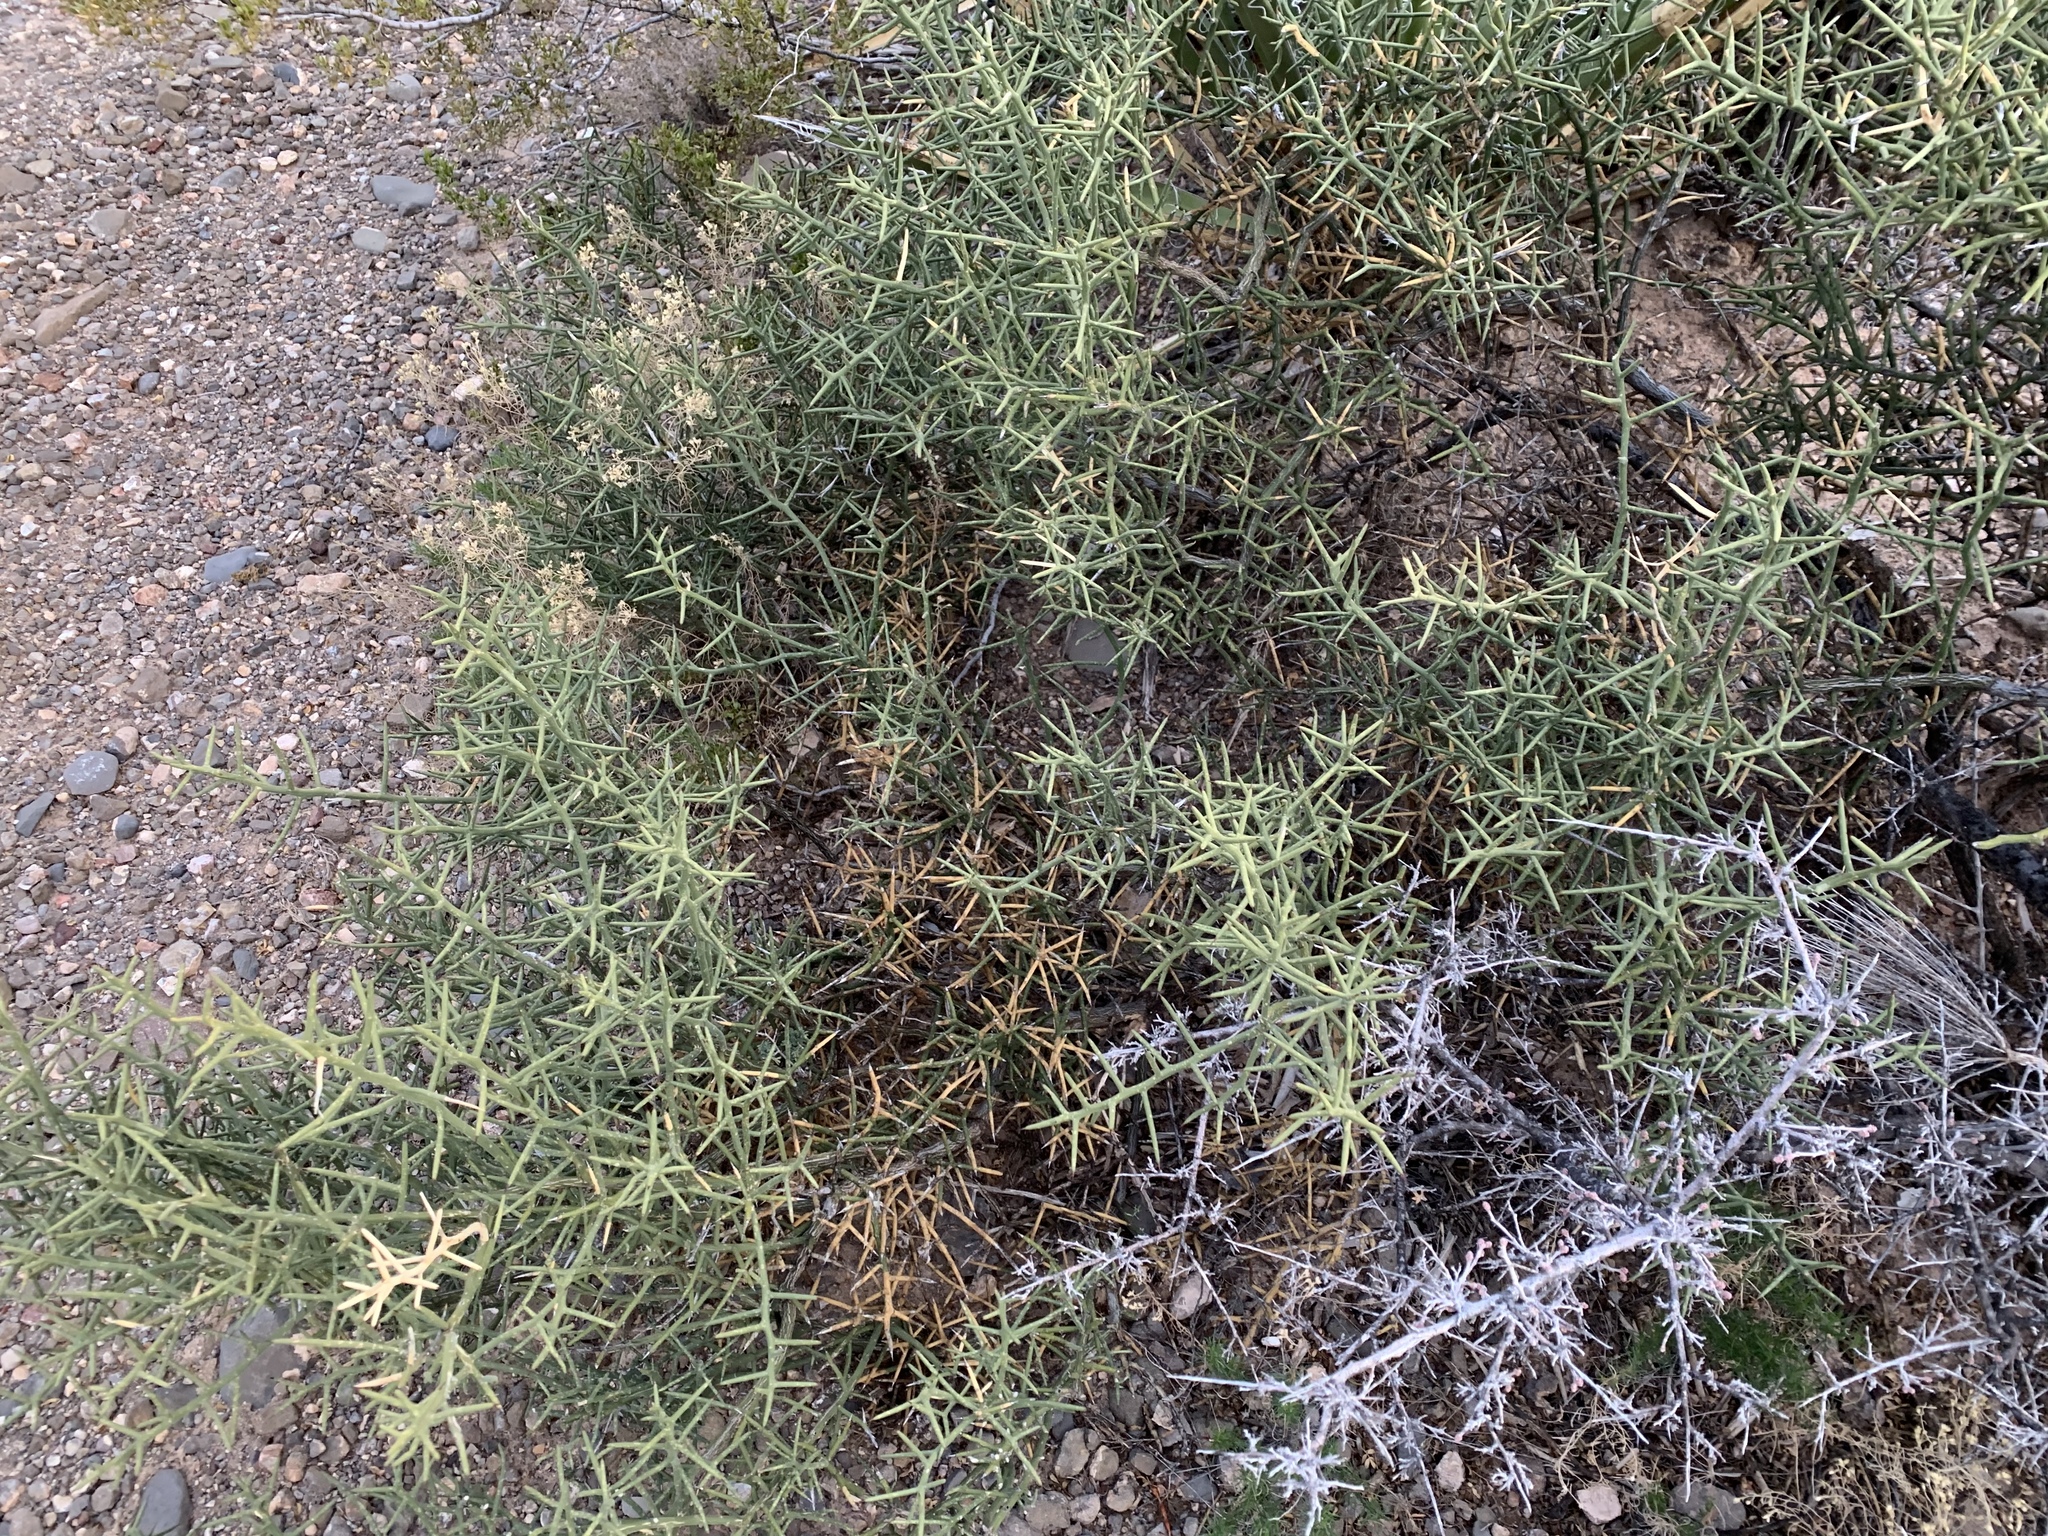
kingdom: Plantae
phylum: Tracheophyta
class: Magnoliopsida
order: Brassicales
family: Koeberliniaceae
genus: Koeberlinia
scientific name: Koeberlinia spinosa
